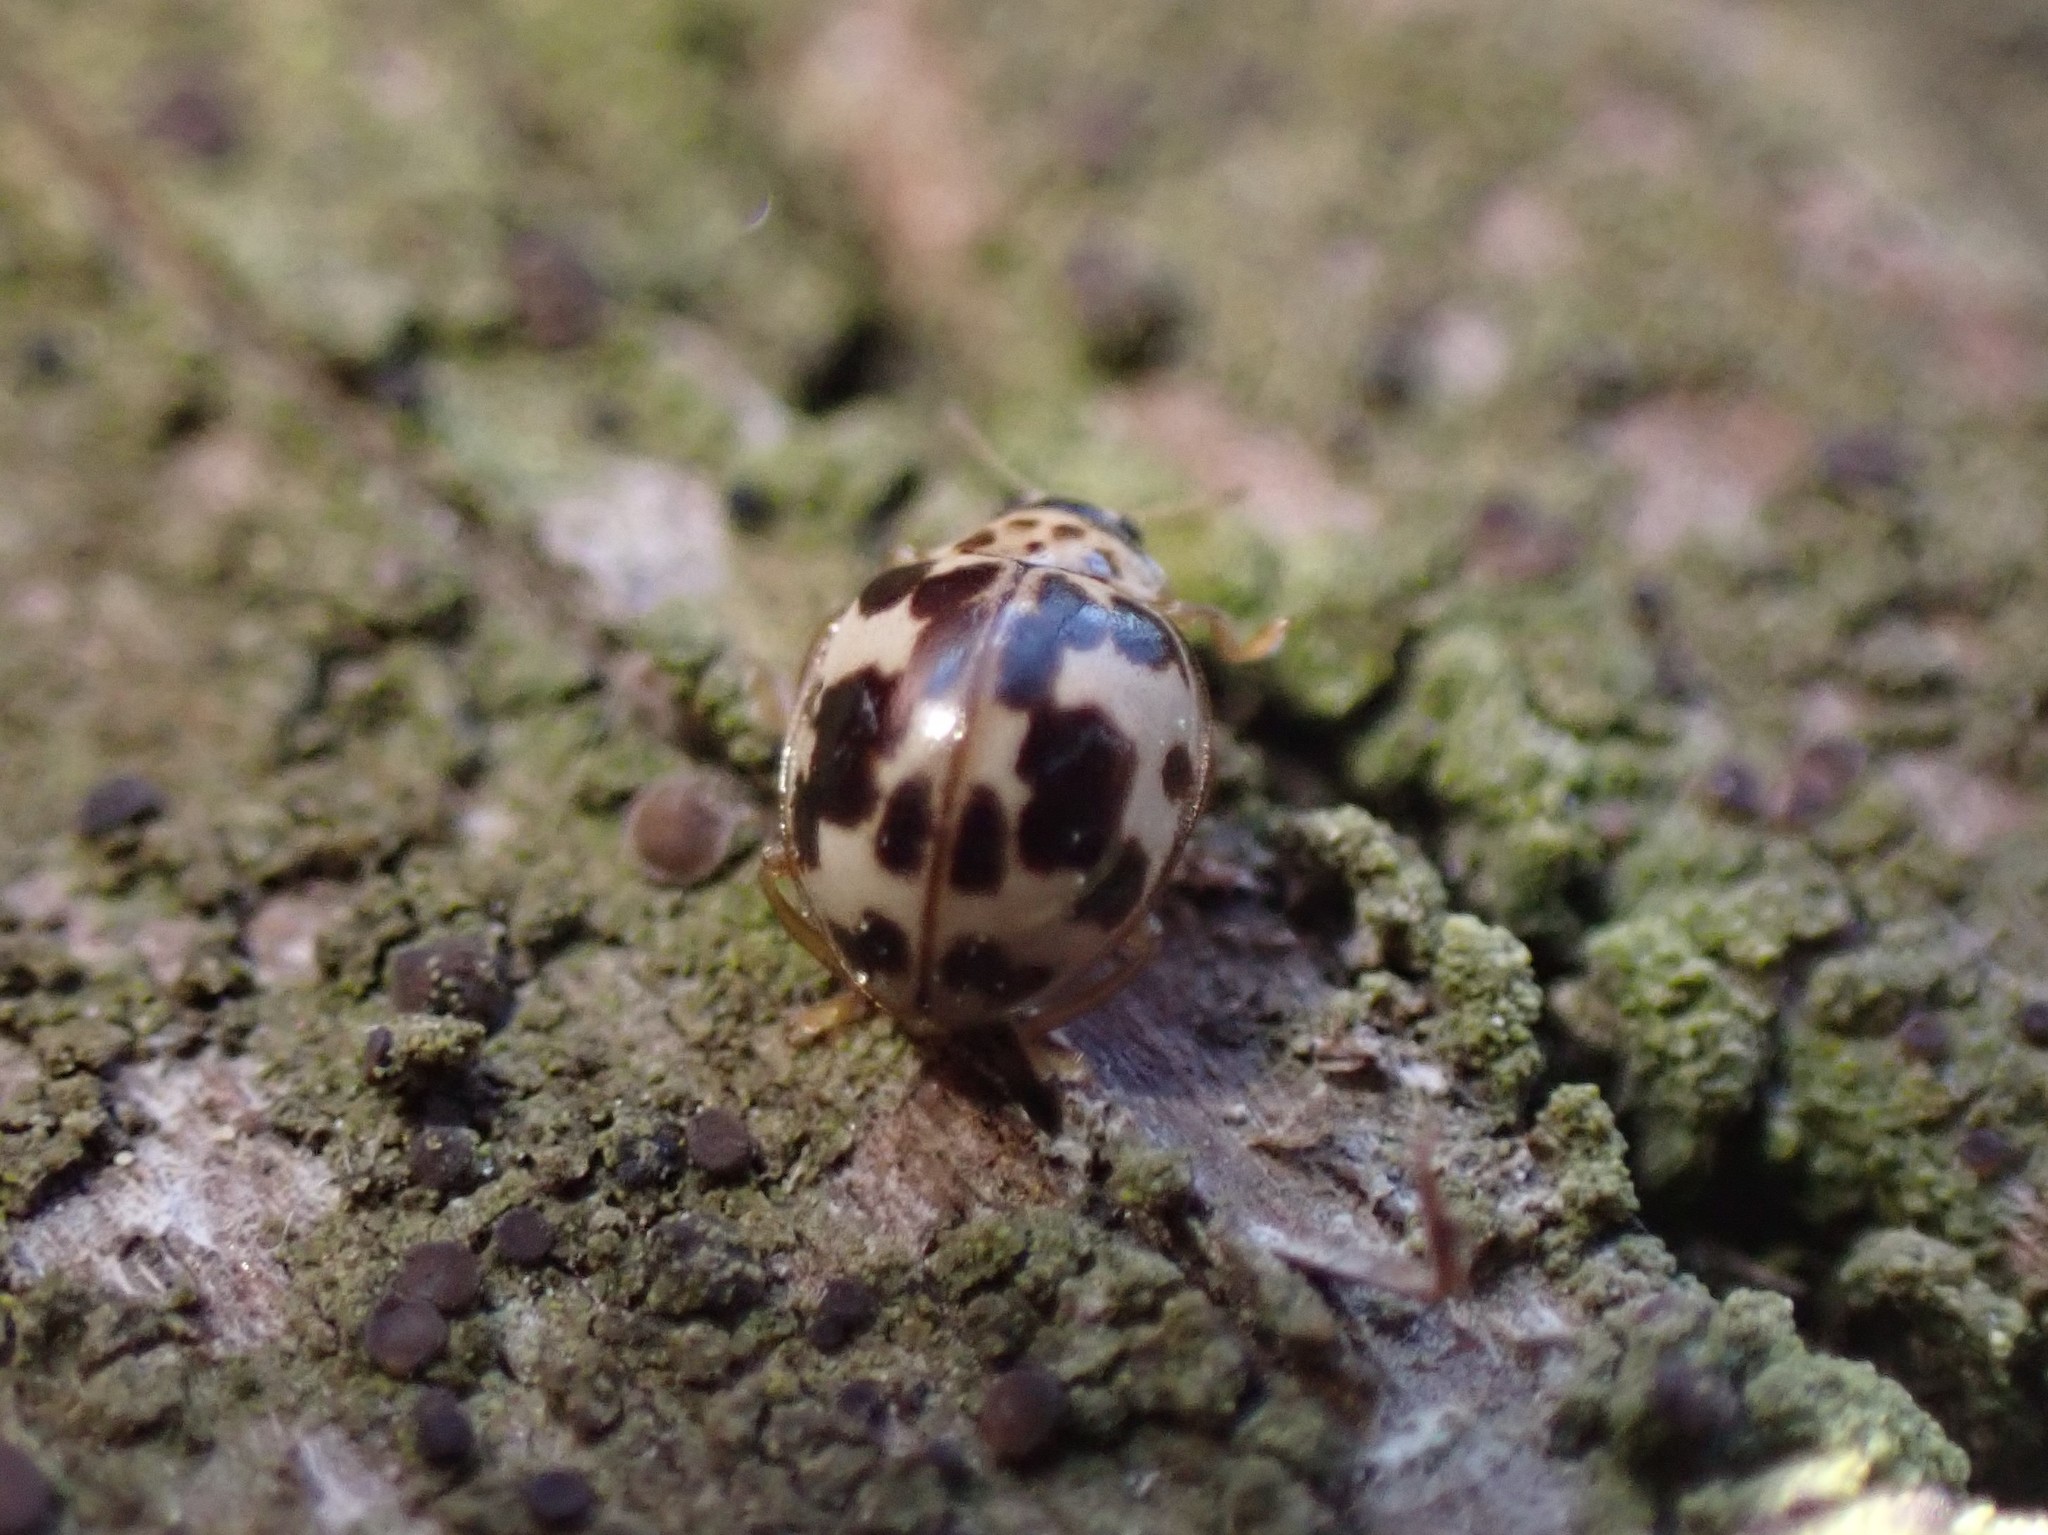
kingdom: Animalia
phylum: Arthropoda
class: Insecta
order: Coleoptera
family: Coccinellidae
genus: Psyllobora
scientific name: Psyllobora borealis
